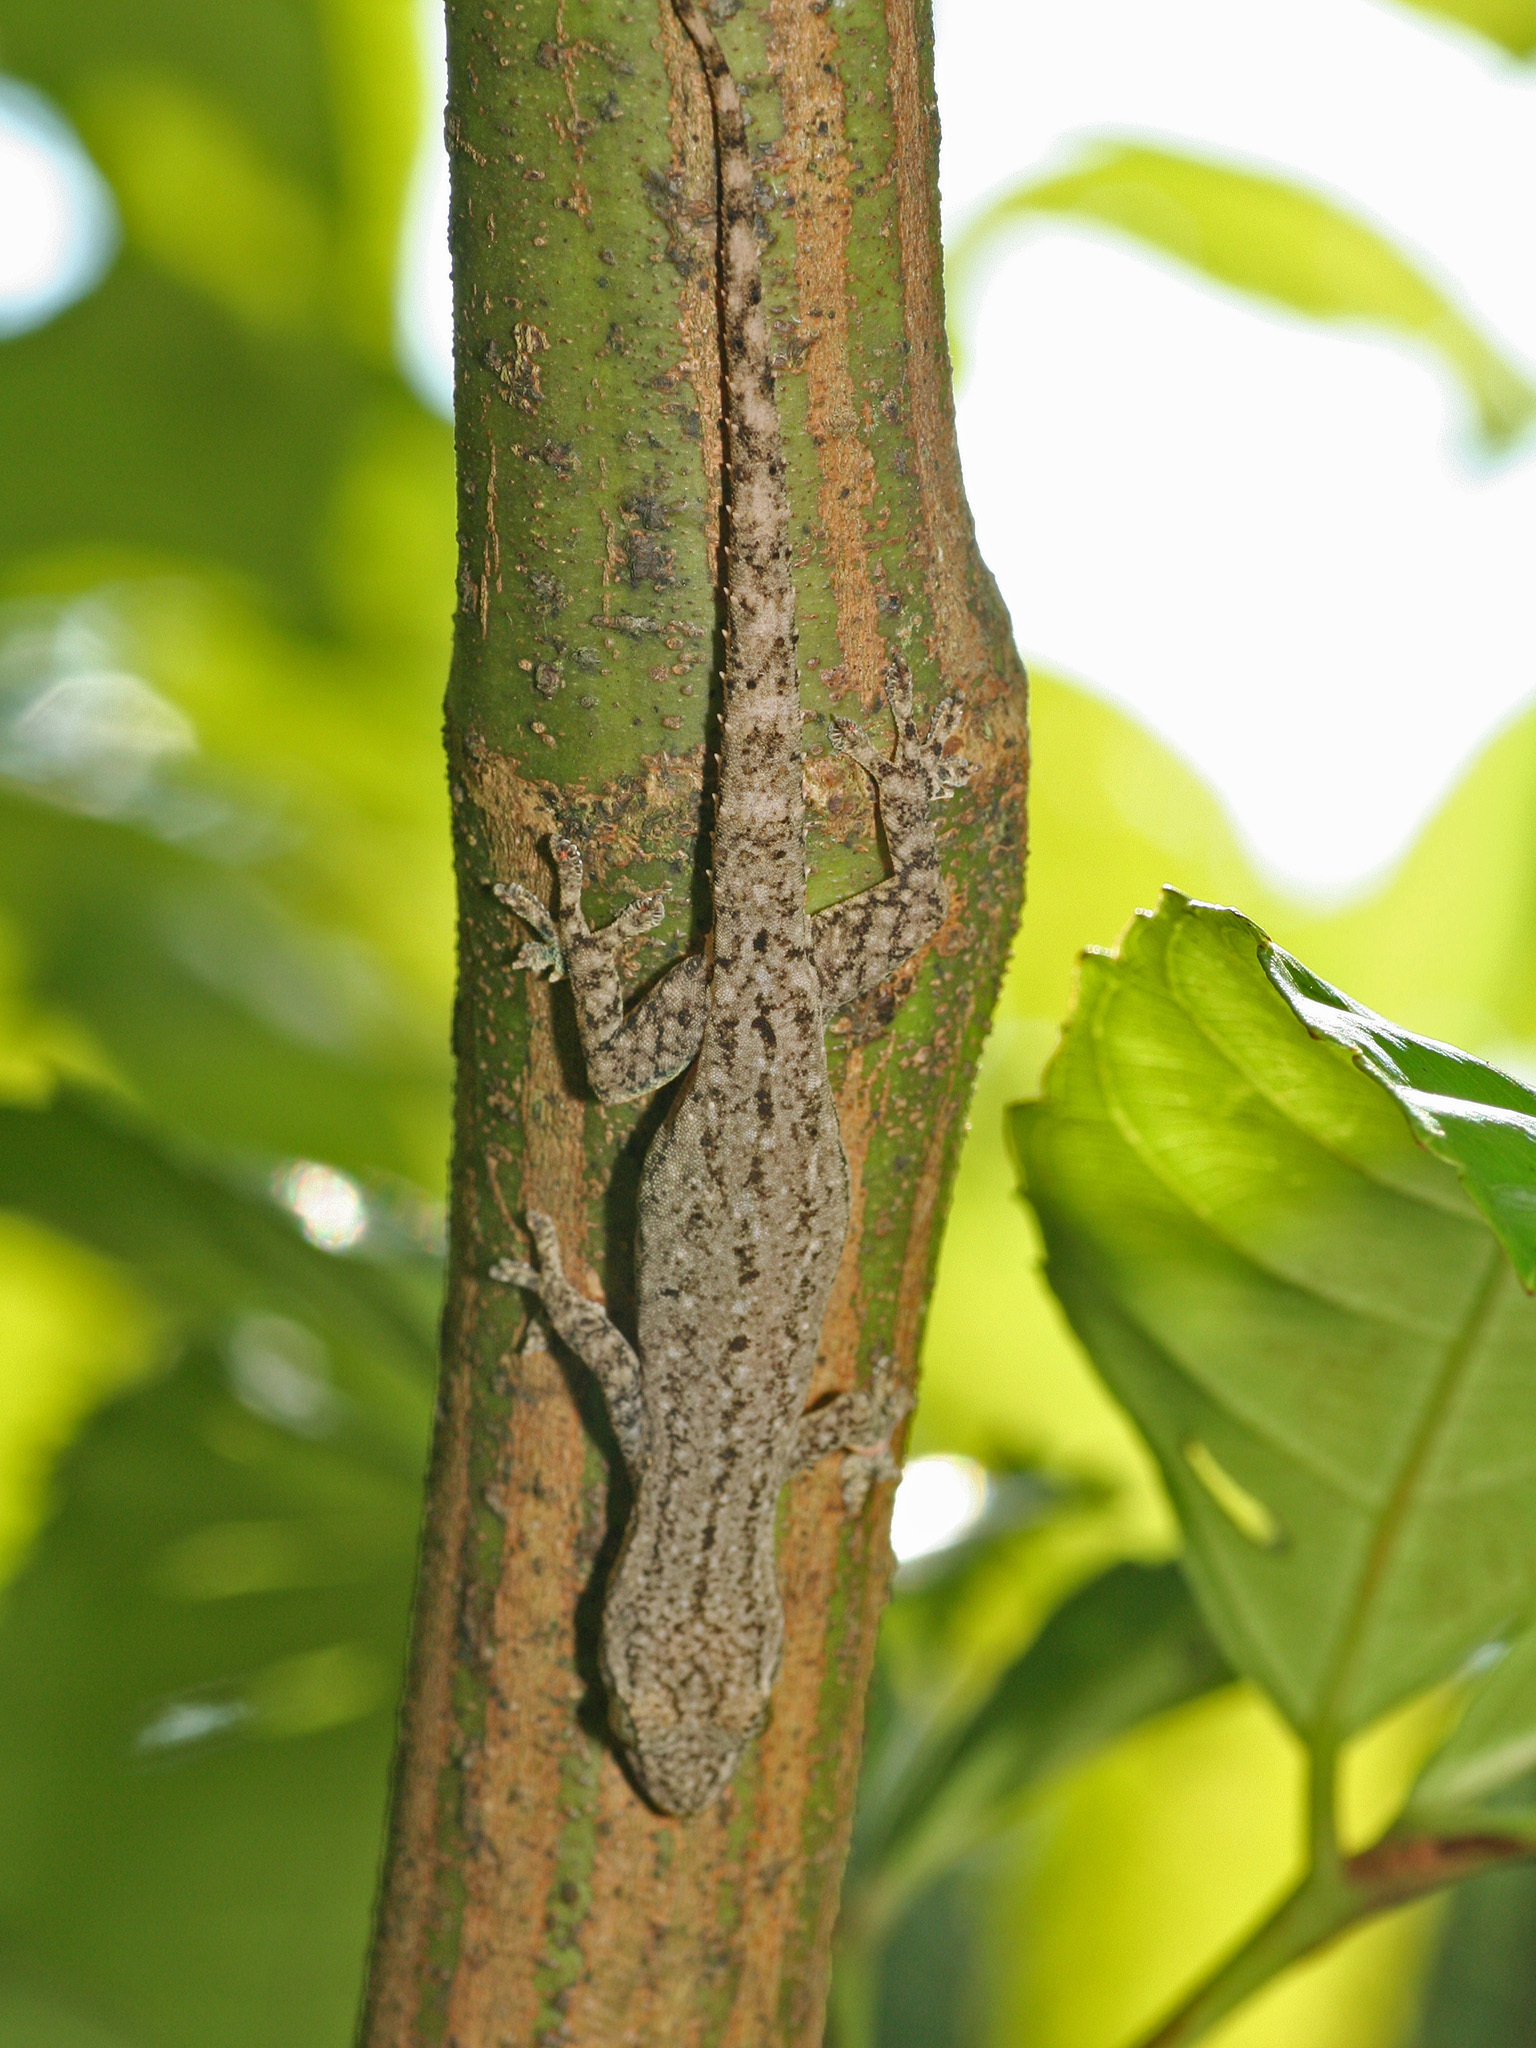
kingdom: Animalia
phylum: Chordata
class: Squamata
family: Gekkonidae
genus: Hemidactylus
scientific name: Hemidactylus frenatus
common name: Common house gecko
